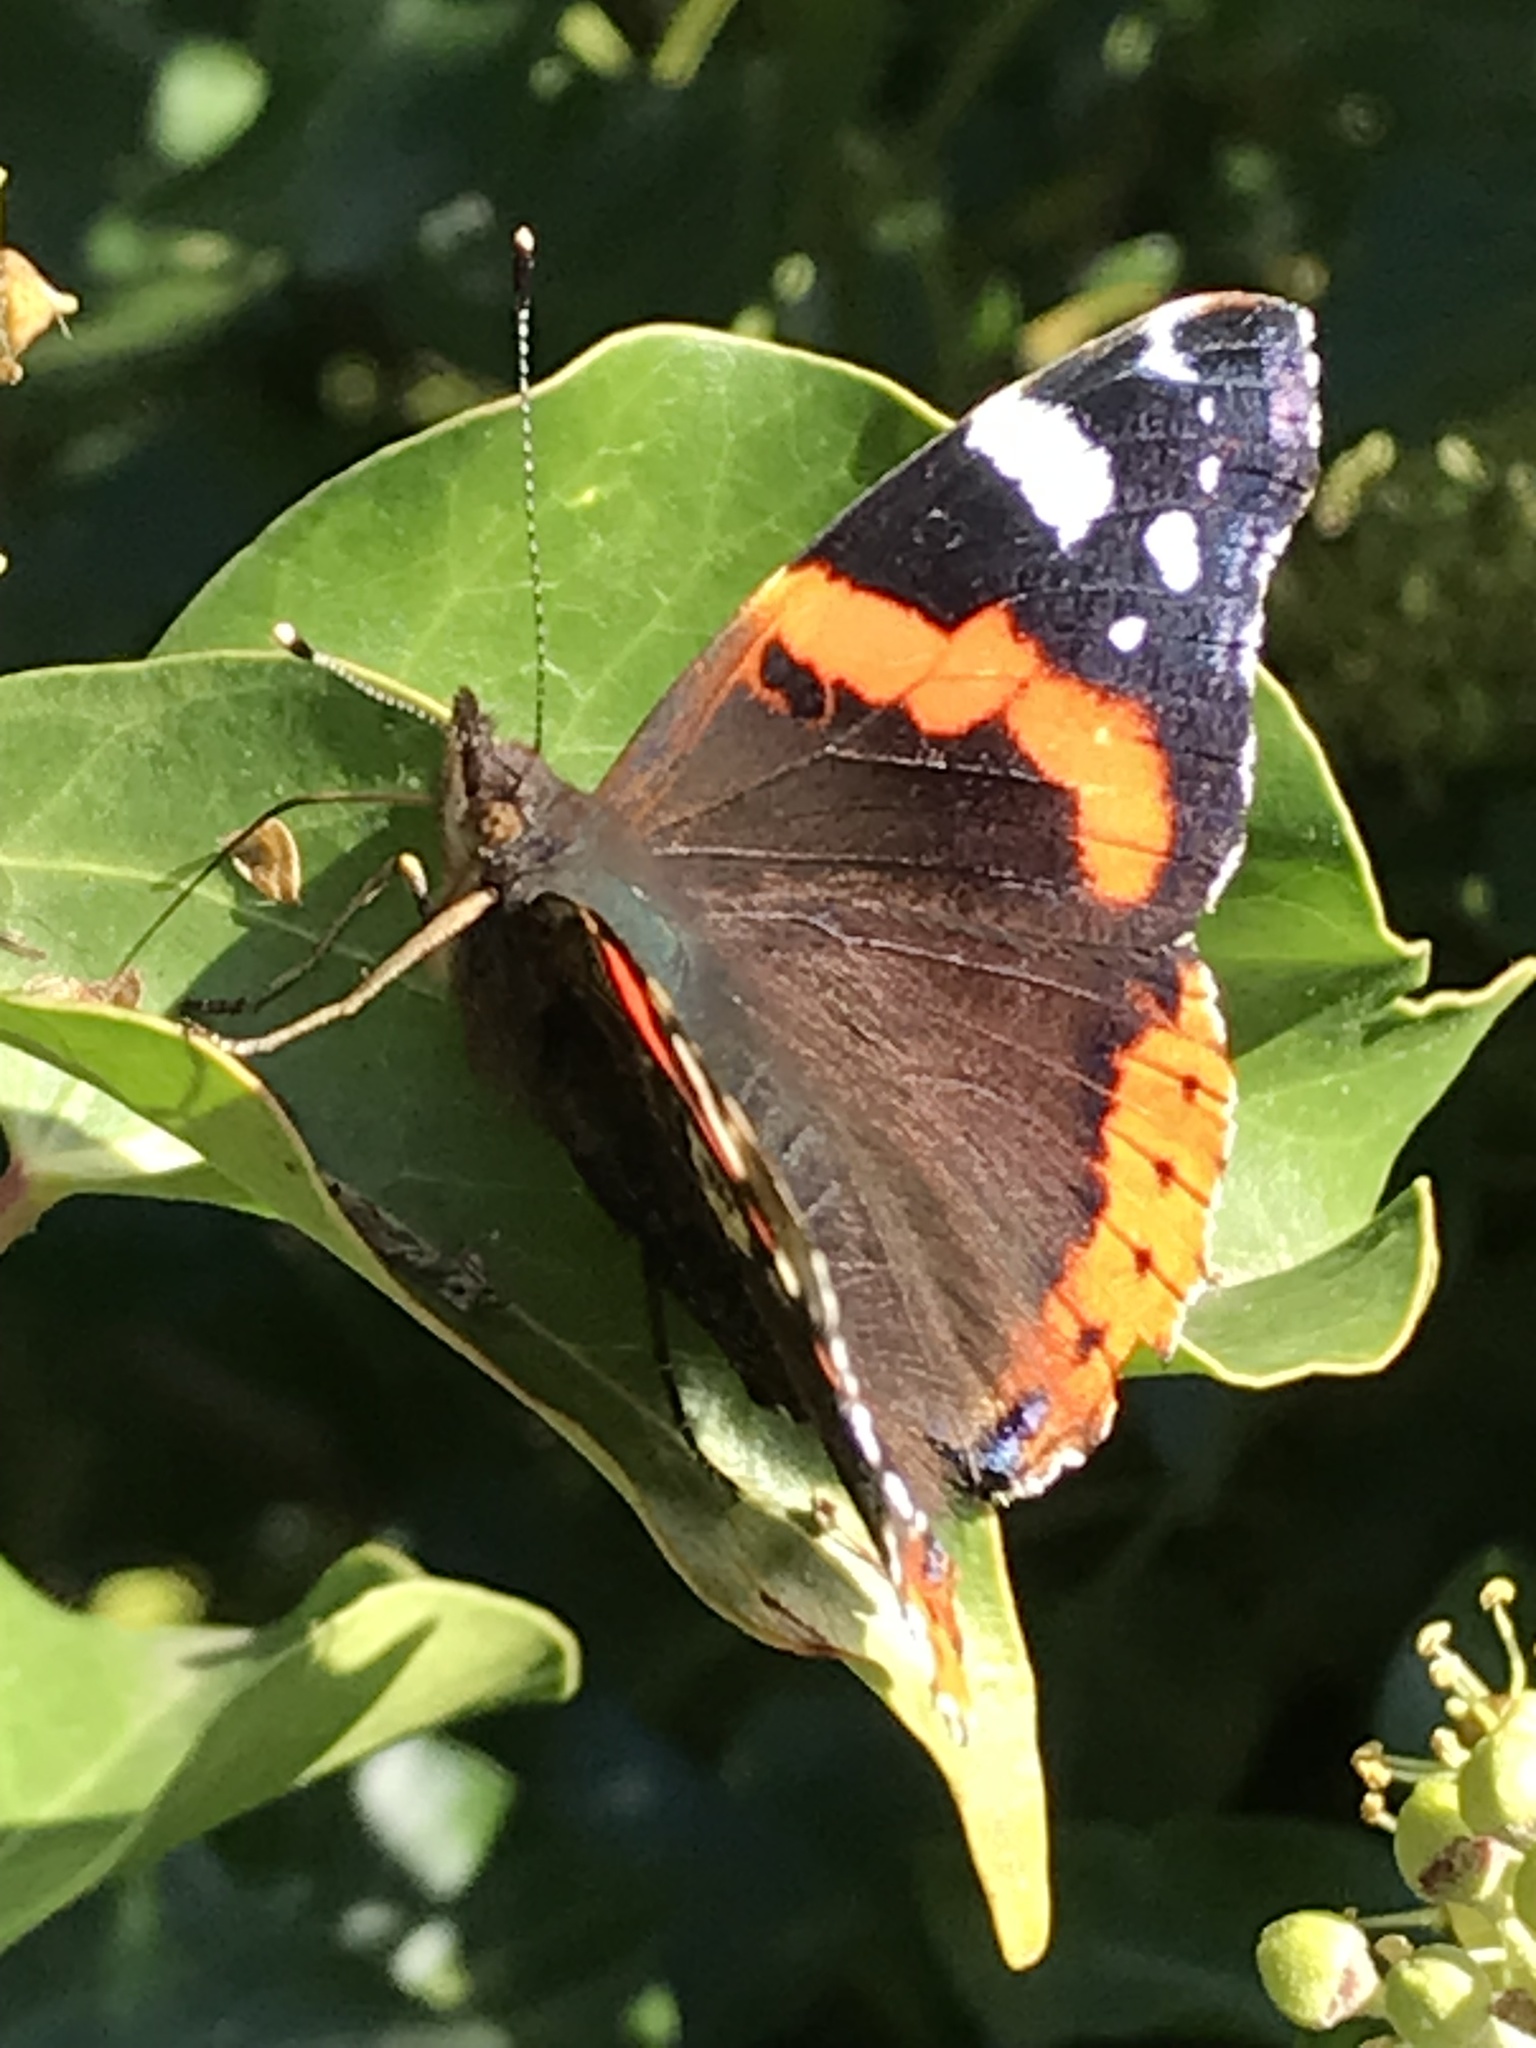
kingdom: Animalia
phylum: Arthropoda
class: Insecta
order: Lepidoptera
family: Nymphalidae
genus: Vanessa
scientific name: Vanessa atalanta
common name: Red admiral
